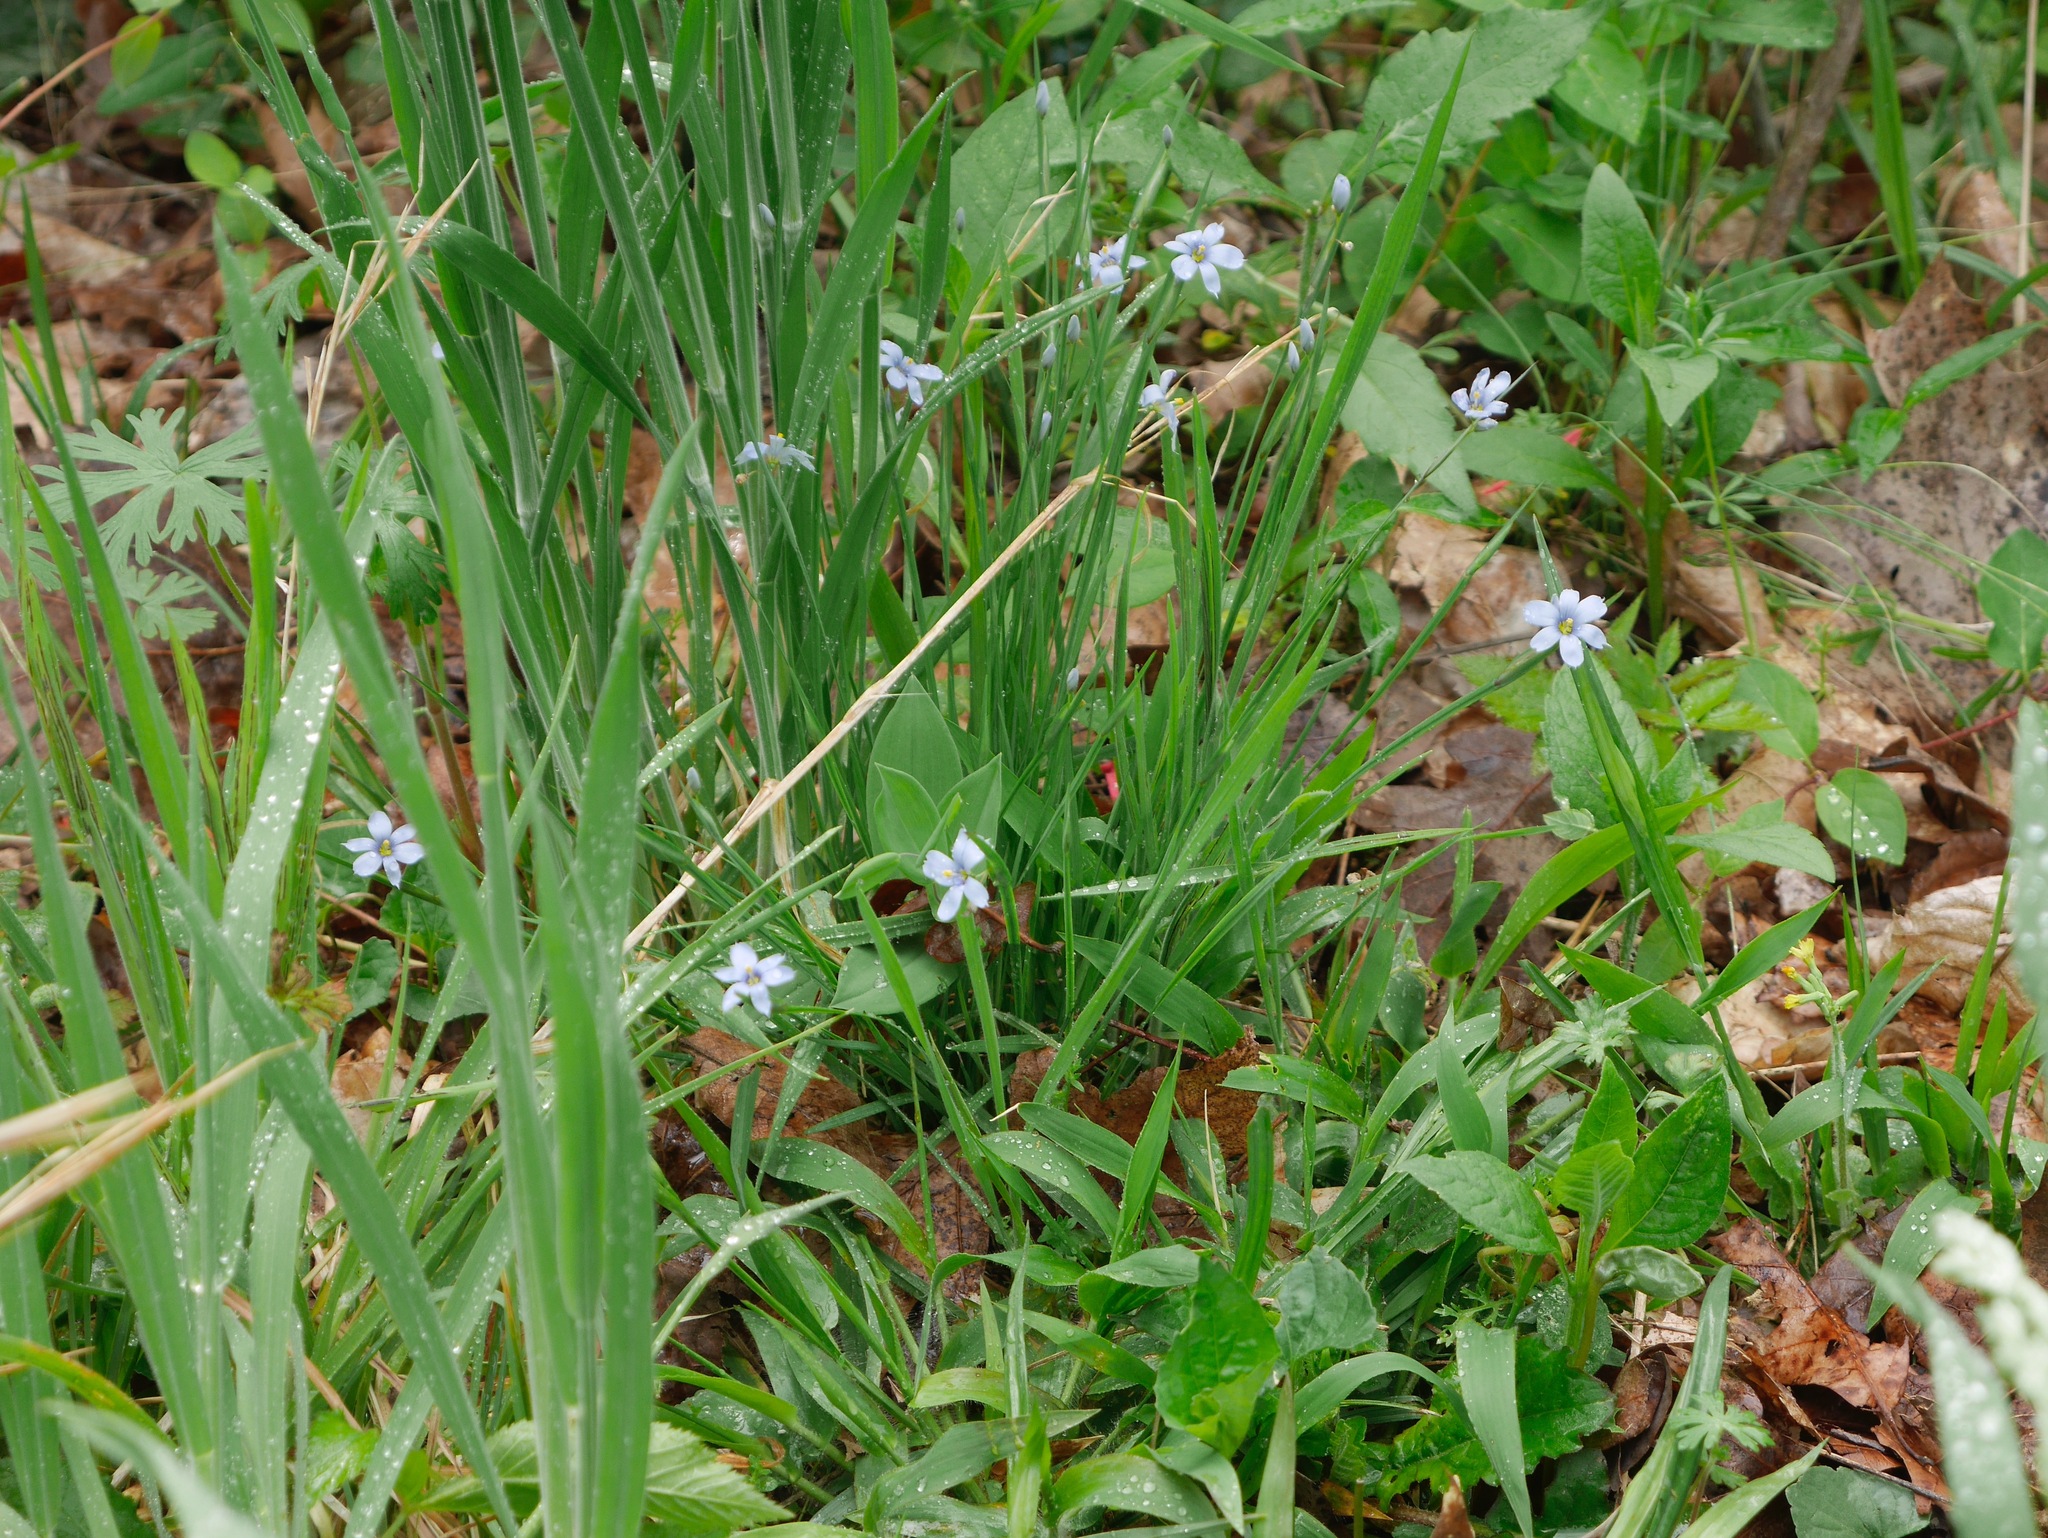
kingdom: Plantae
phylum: Tracheophyta
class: Liliopsida
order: Asparagales
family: Iridaceae
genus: Sisyrinchium
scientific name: Sisyrinchium angustifolium
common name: Narrow-leaf blue-eyed-grass
